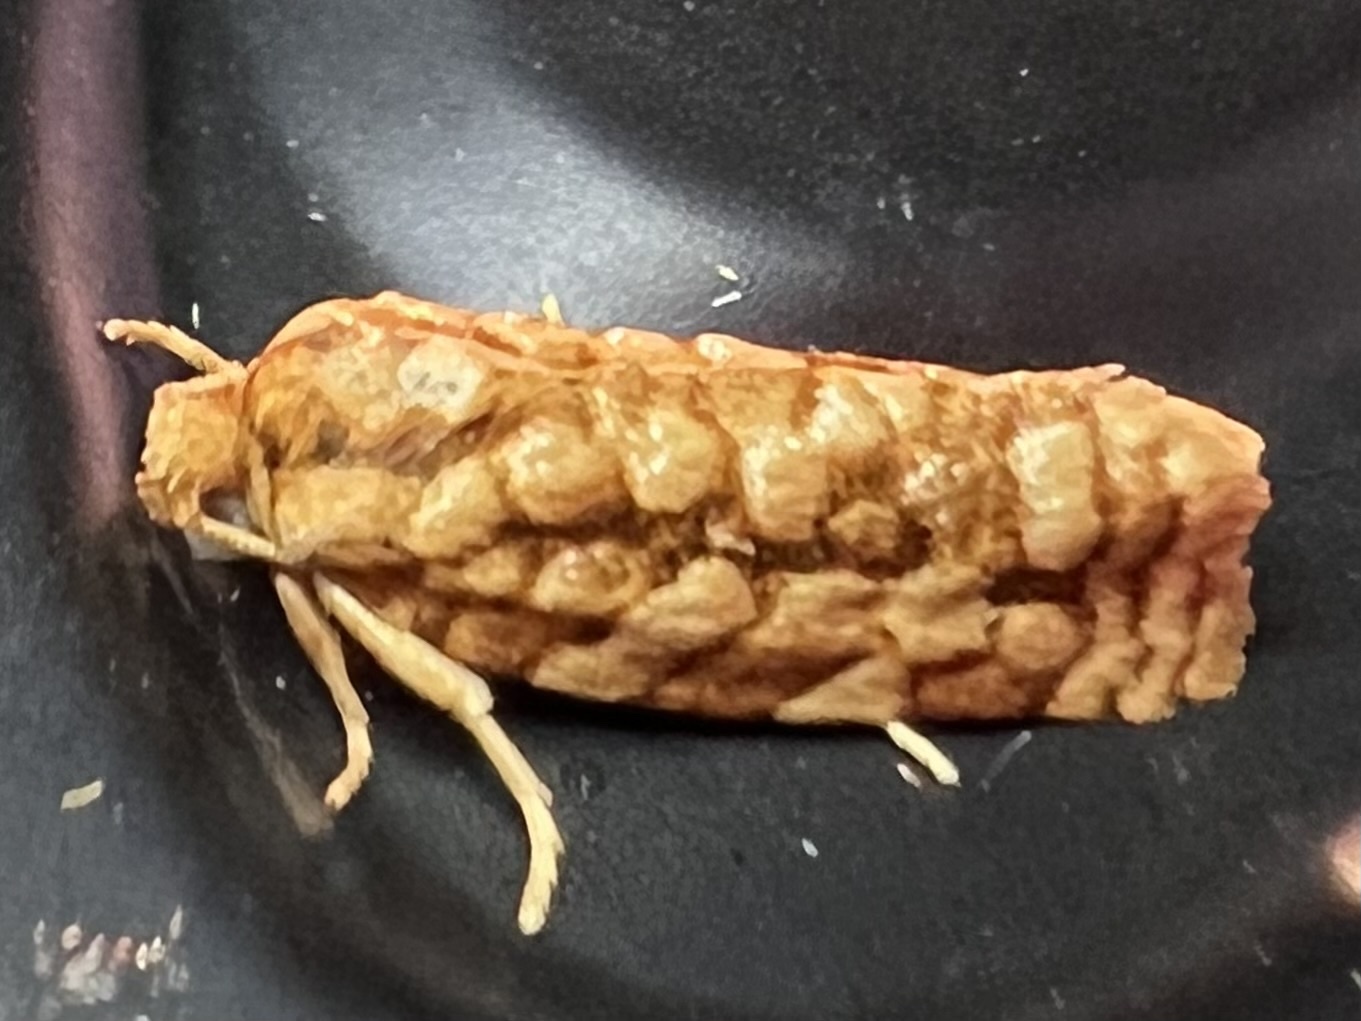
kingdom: Animalia
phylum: Arthropoda
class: Insecta
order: Lepidoptera
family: Tortricidae
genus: Choristoneura
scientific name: Choristoneura houstonana
